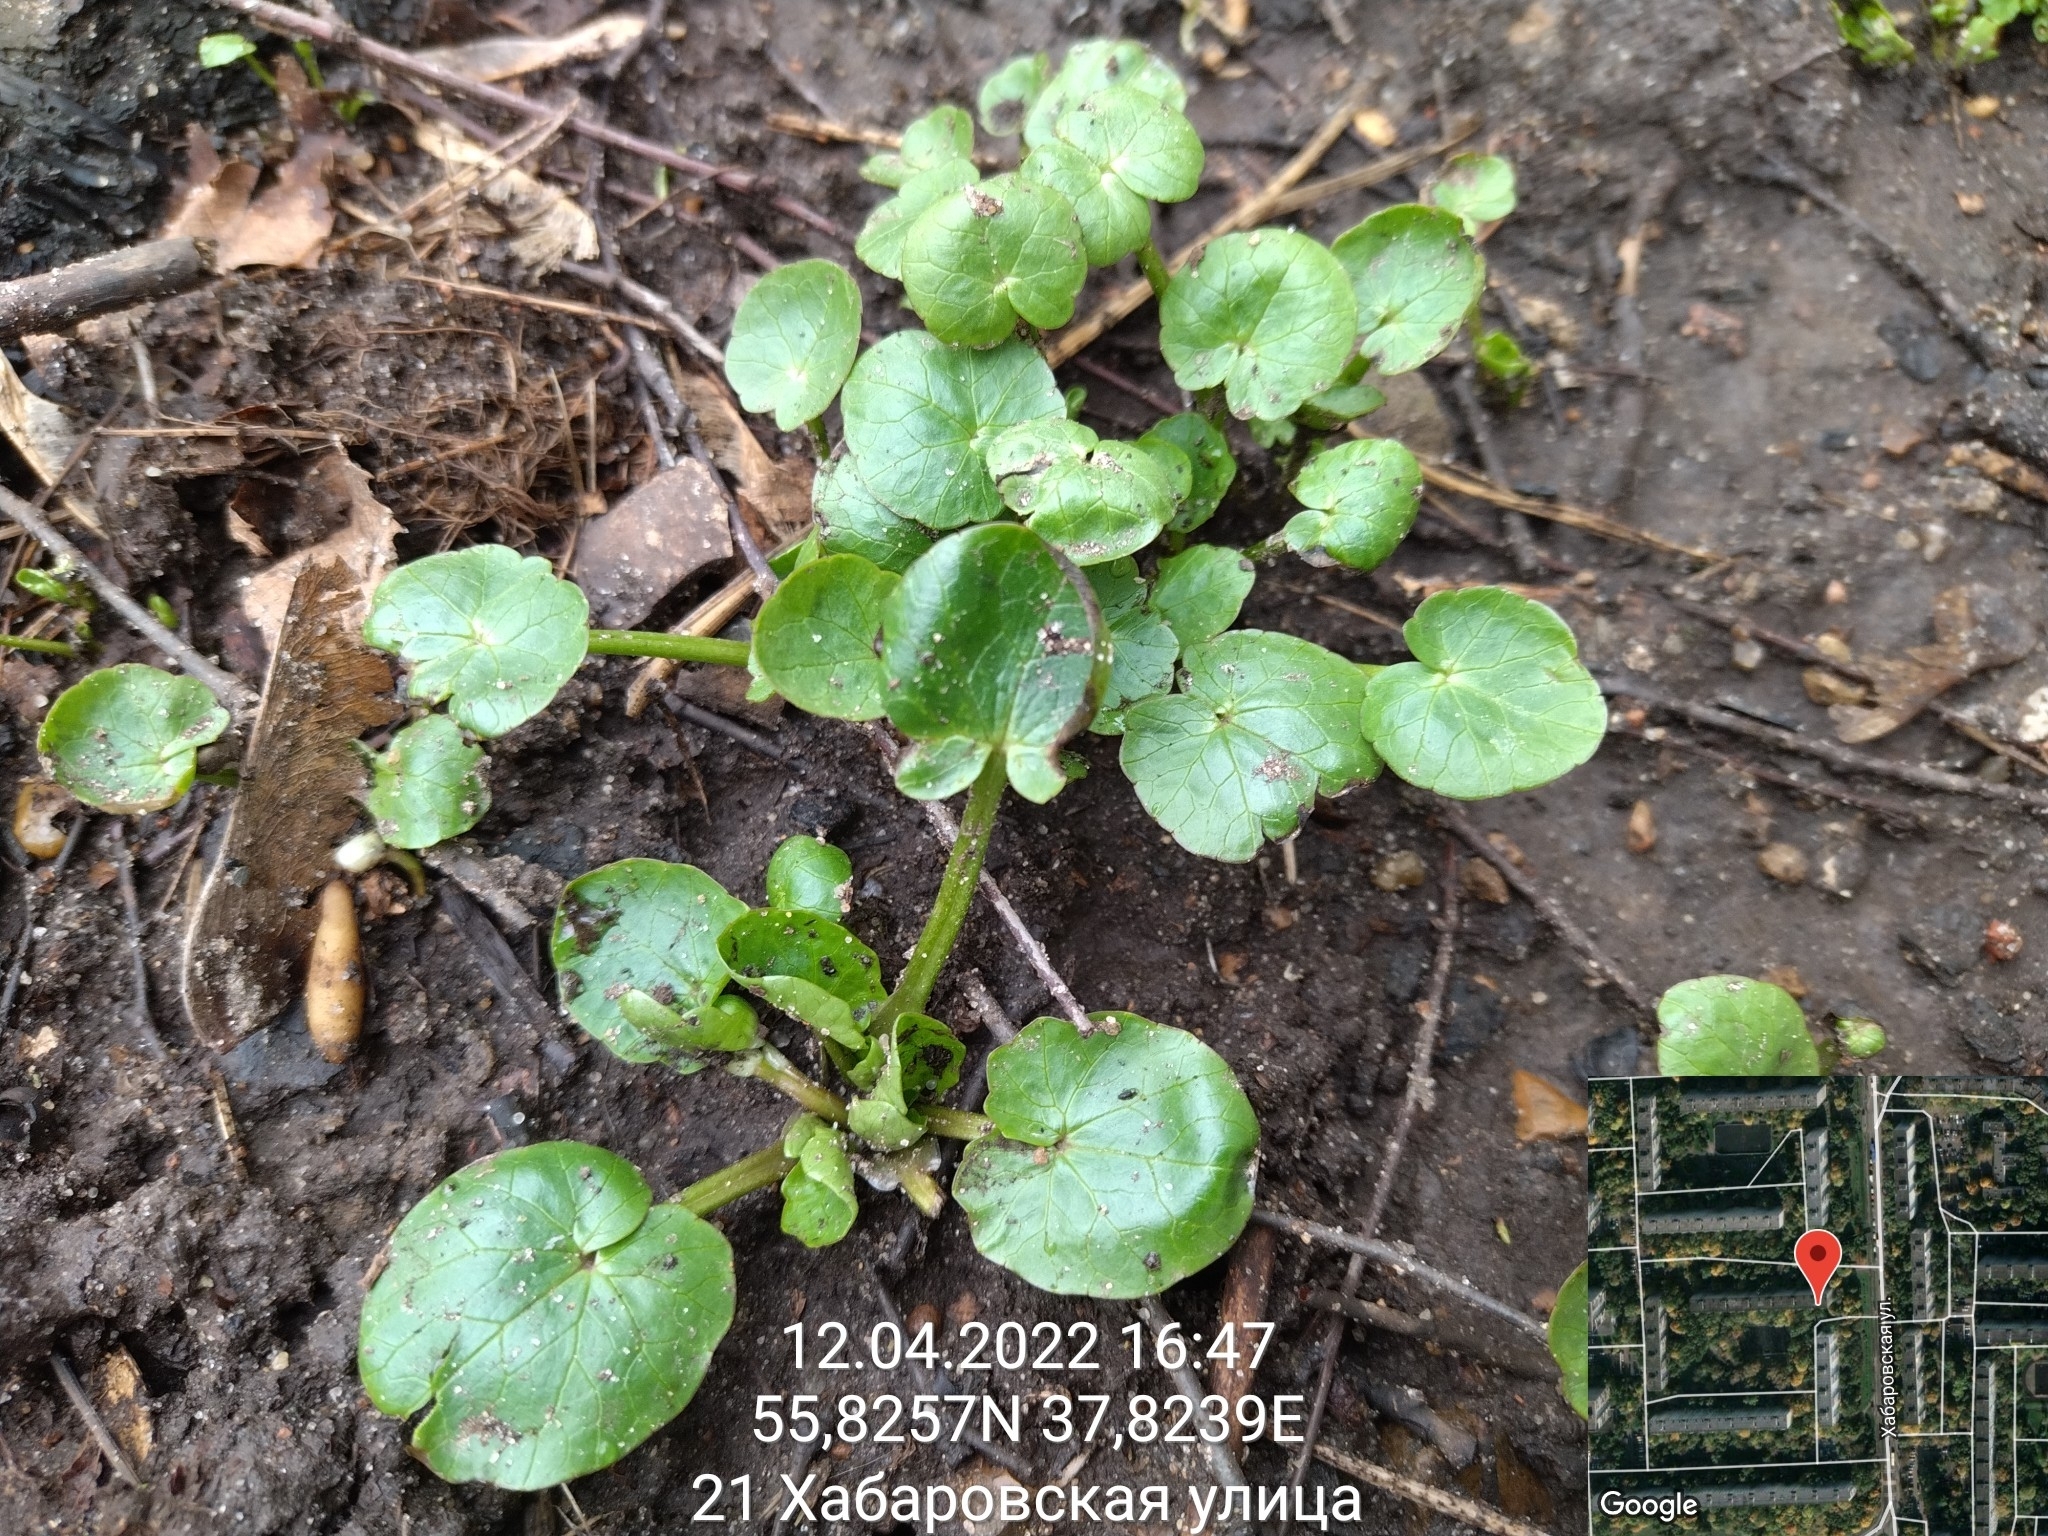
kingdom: Plantae
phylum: Tracheophyta
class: Magnoliopsida
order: Ranunculales
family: Ranunculaceae
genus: Ficaria
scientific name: Ficaria verna
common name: Lesser celandine
